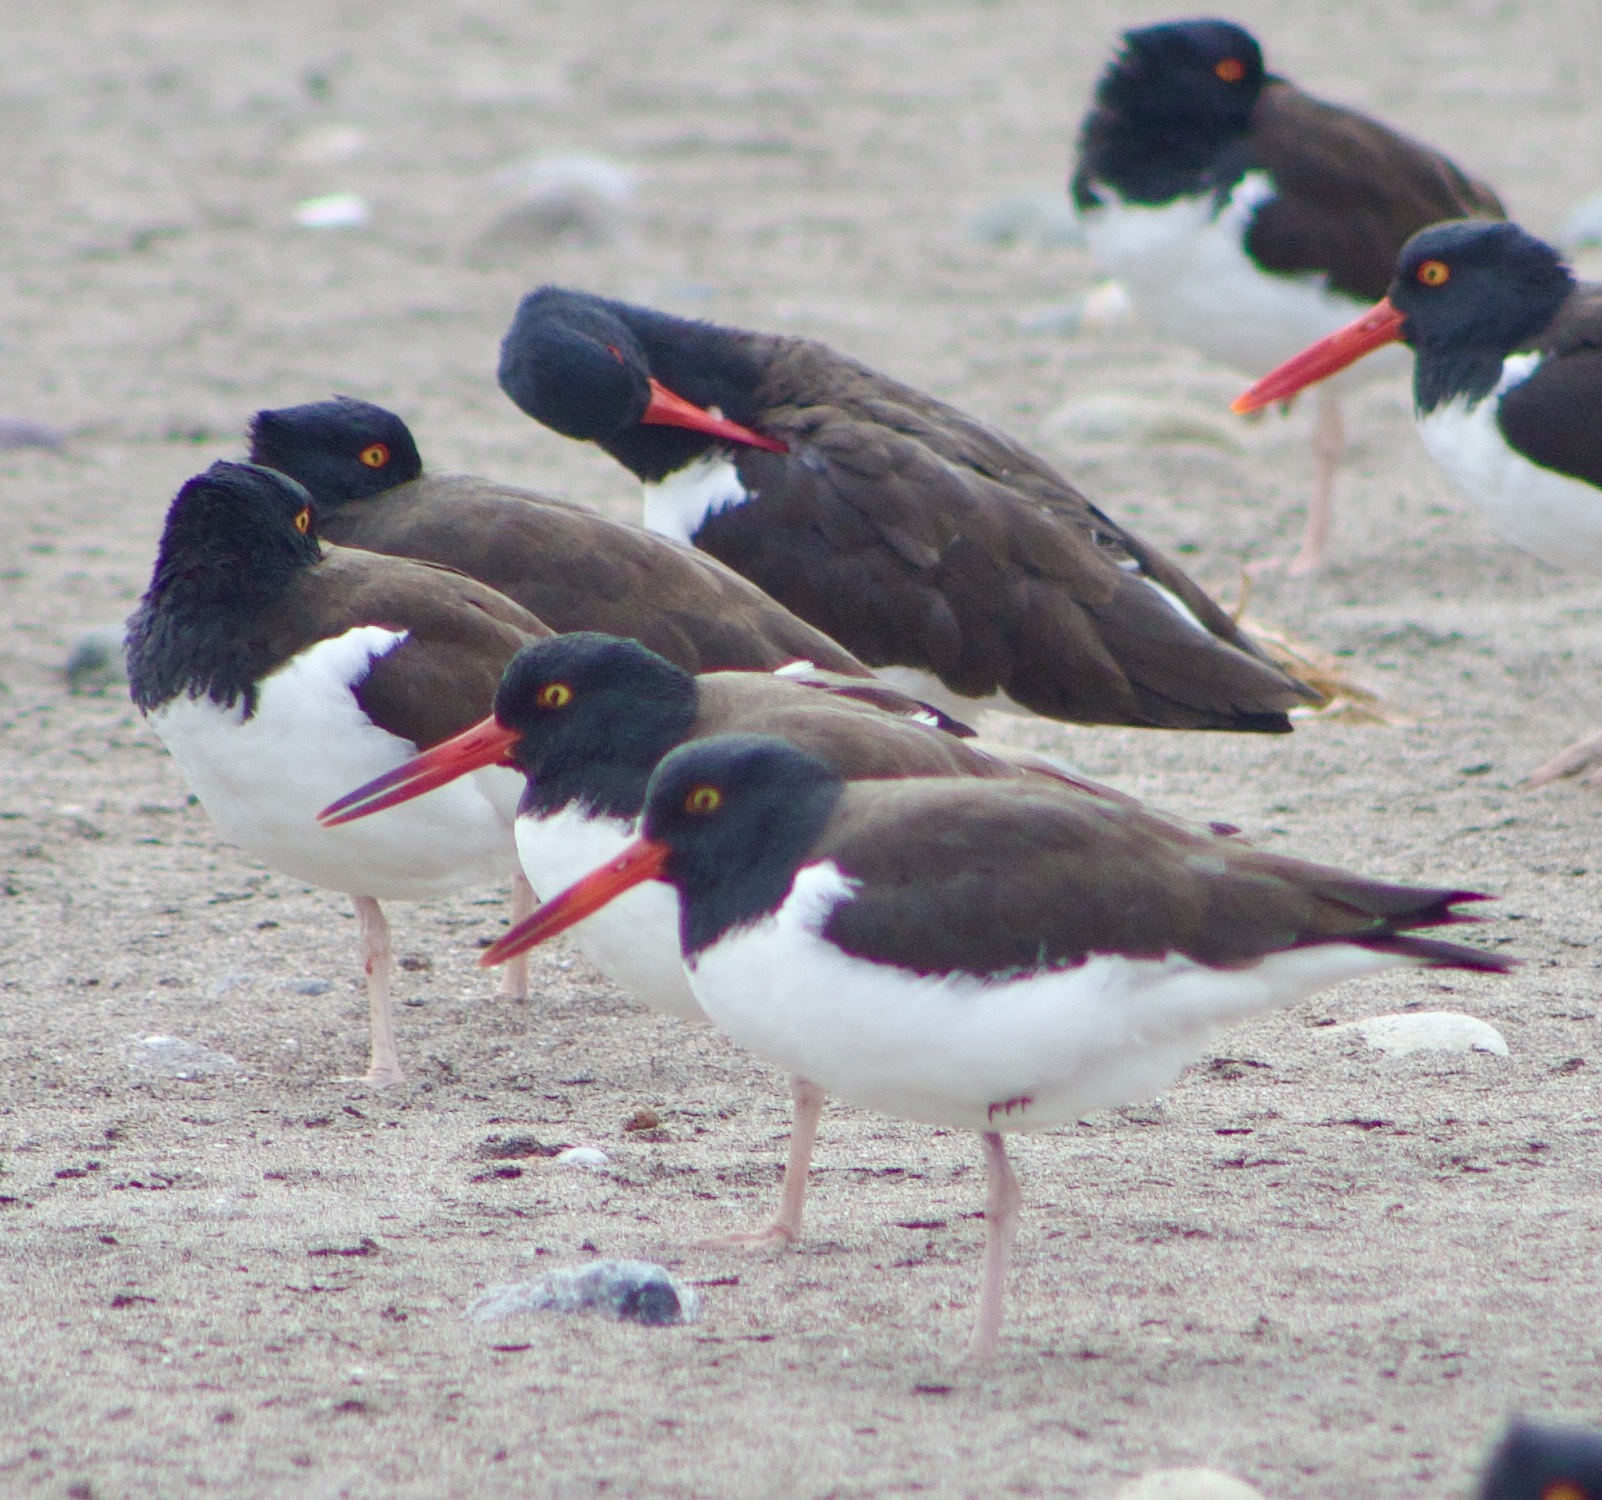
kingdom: Animalia
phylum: Chordata
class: Aves
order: Charadriiformes
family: Haematopodidae
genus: Haematopus
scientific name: Haematopus palliatus
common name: American oystercatcher
